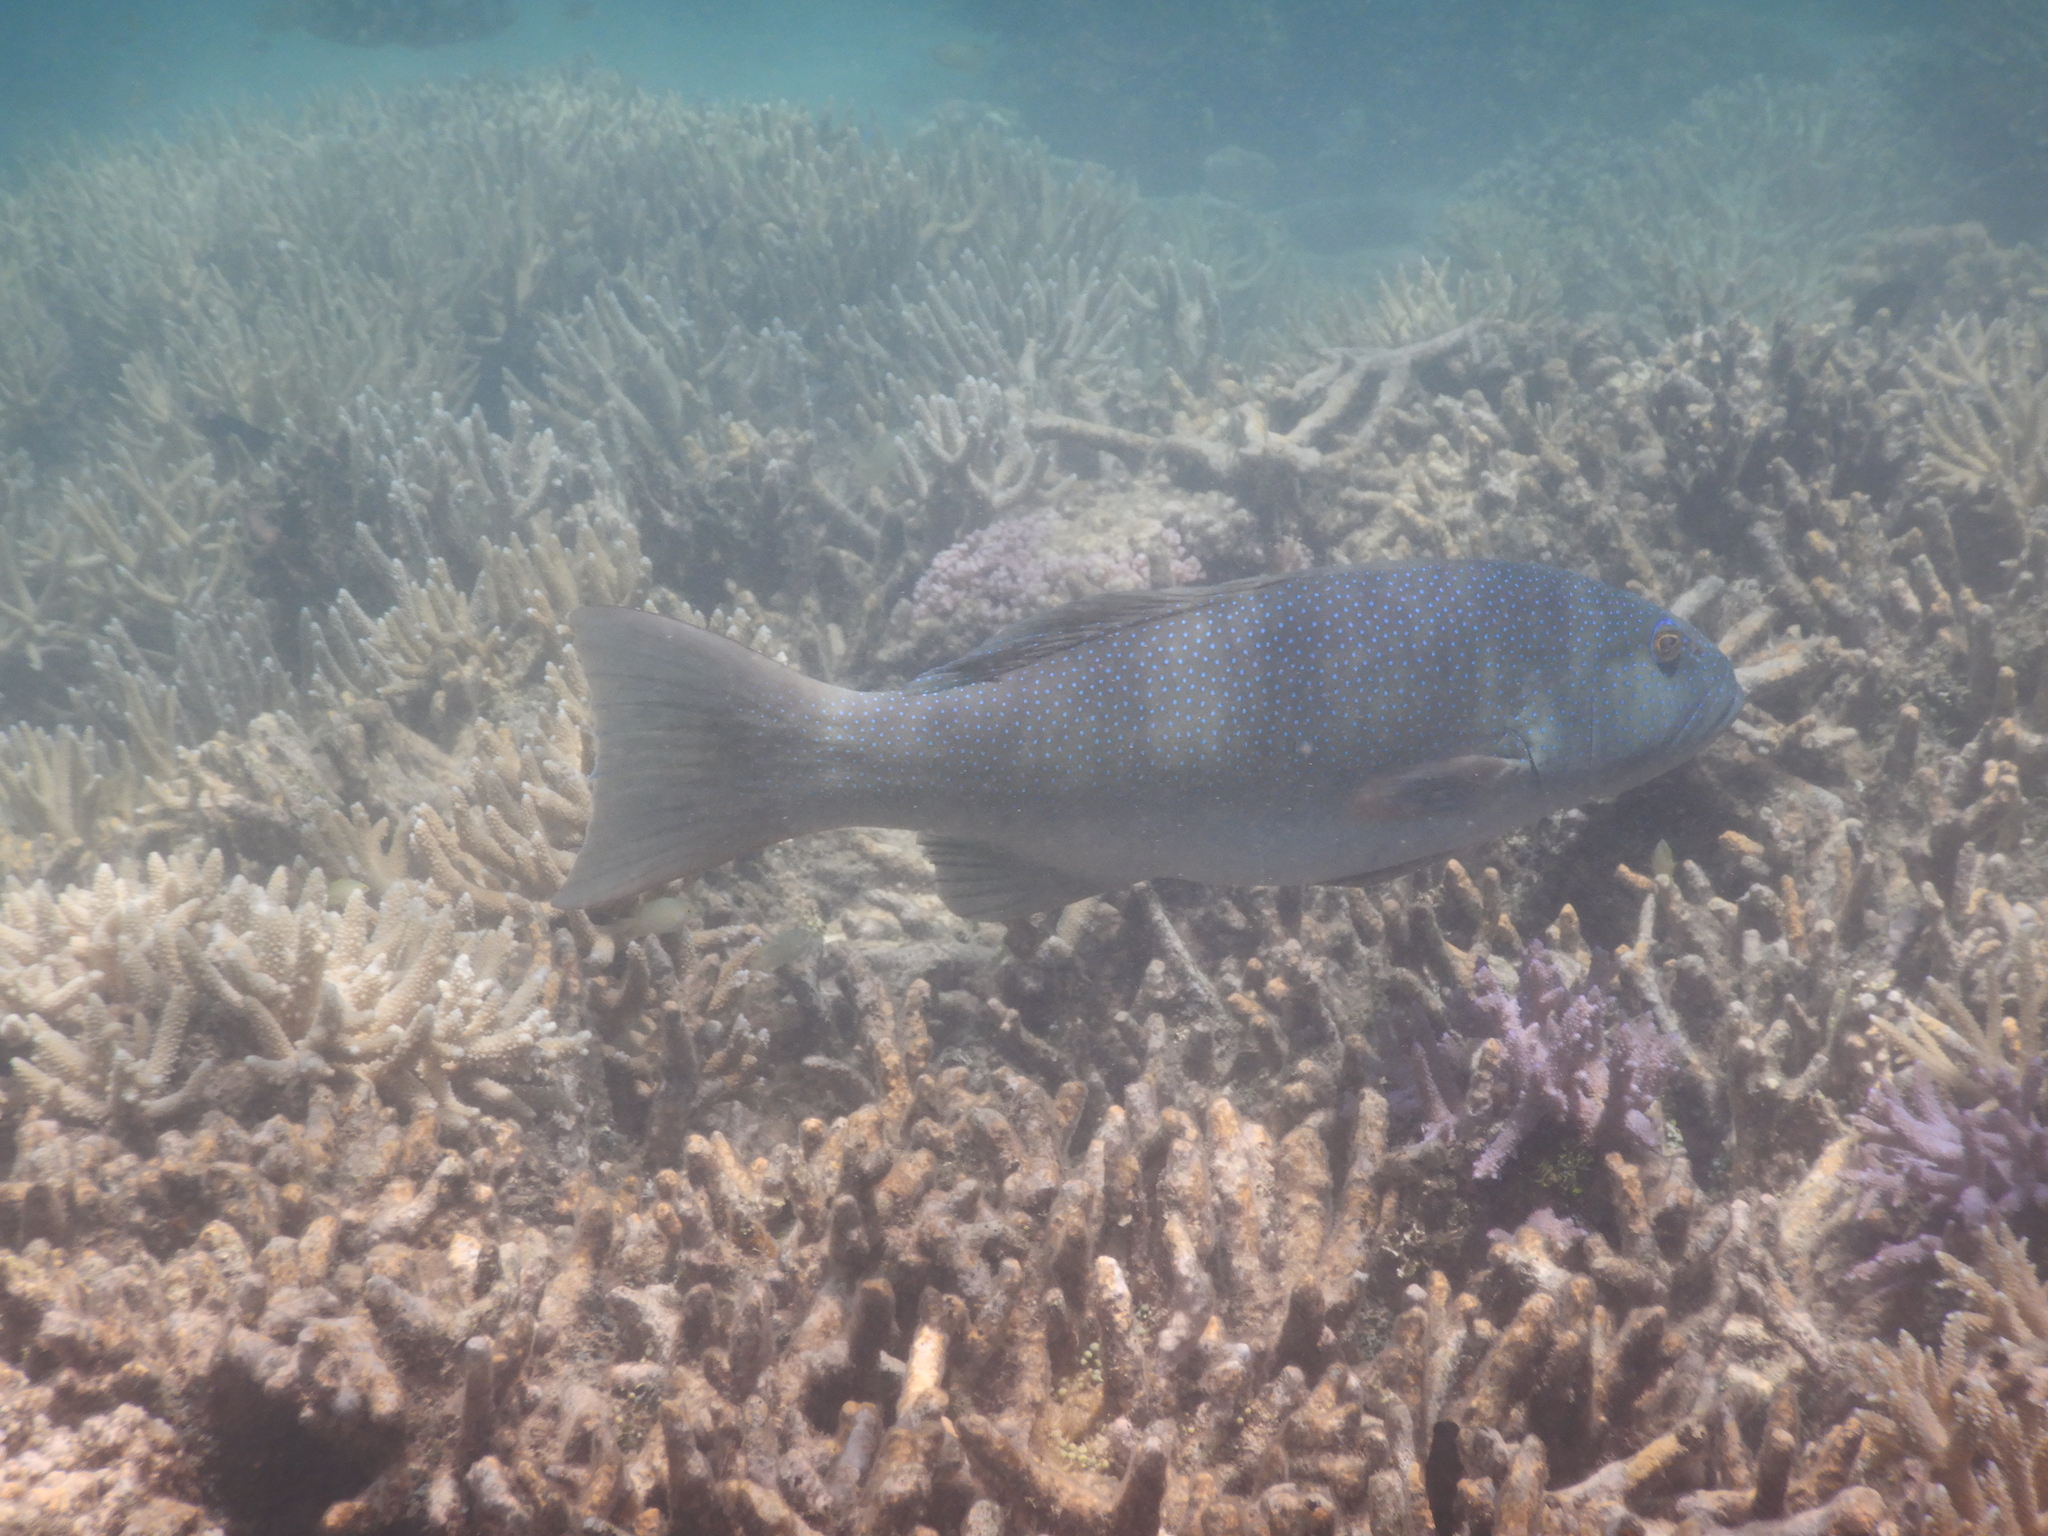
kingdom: Animalia
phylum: Chordata
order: Perciformes
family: Serranidae
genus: Plectropomus
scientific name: Plectropomus leopardus
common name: Coral trout
